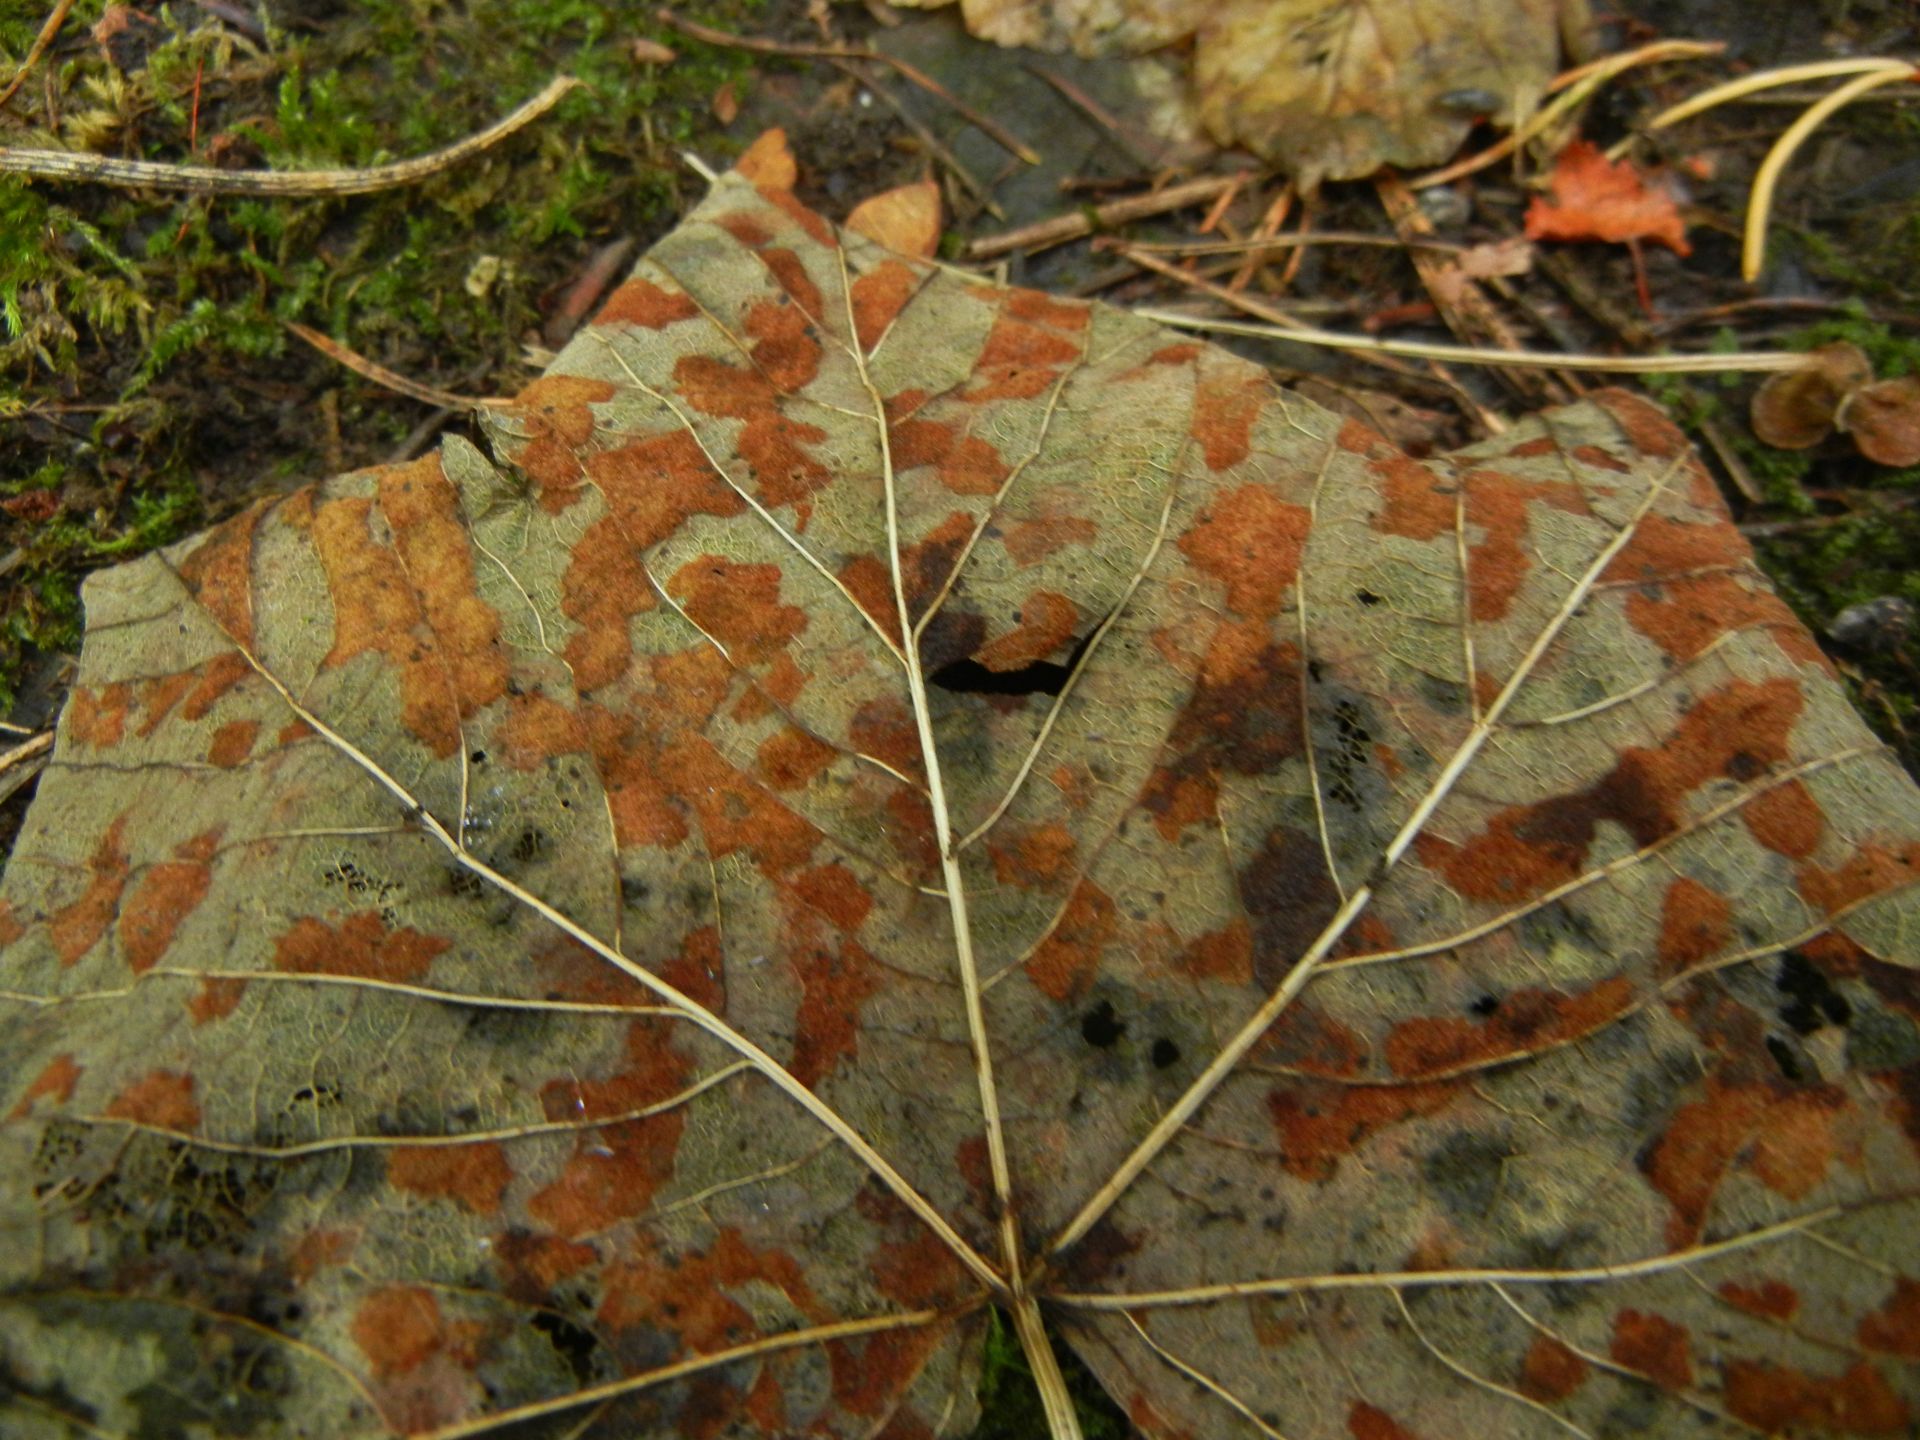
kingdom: Animalia
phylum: Arthropoda
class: Arachnida
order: Trombidiformes
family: Eriophyidae
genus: Aceria
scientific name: Aceria pseudoplatani
